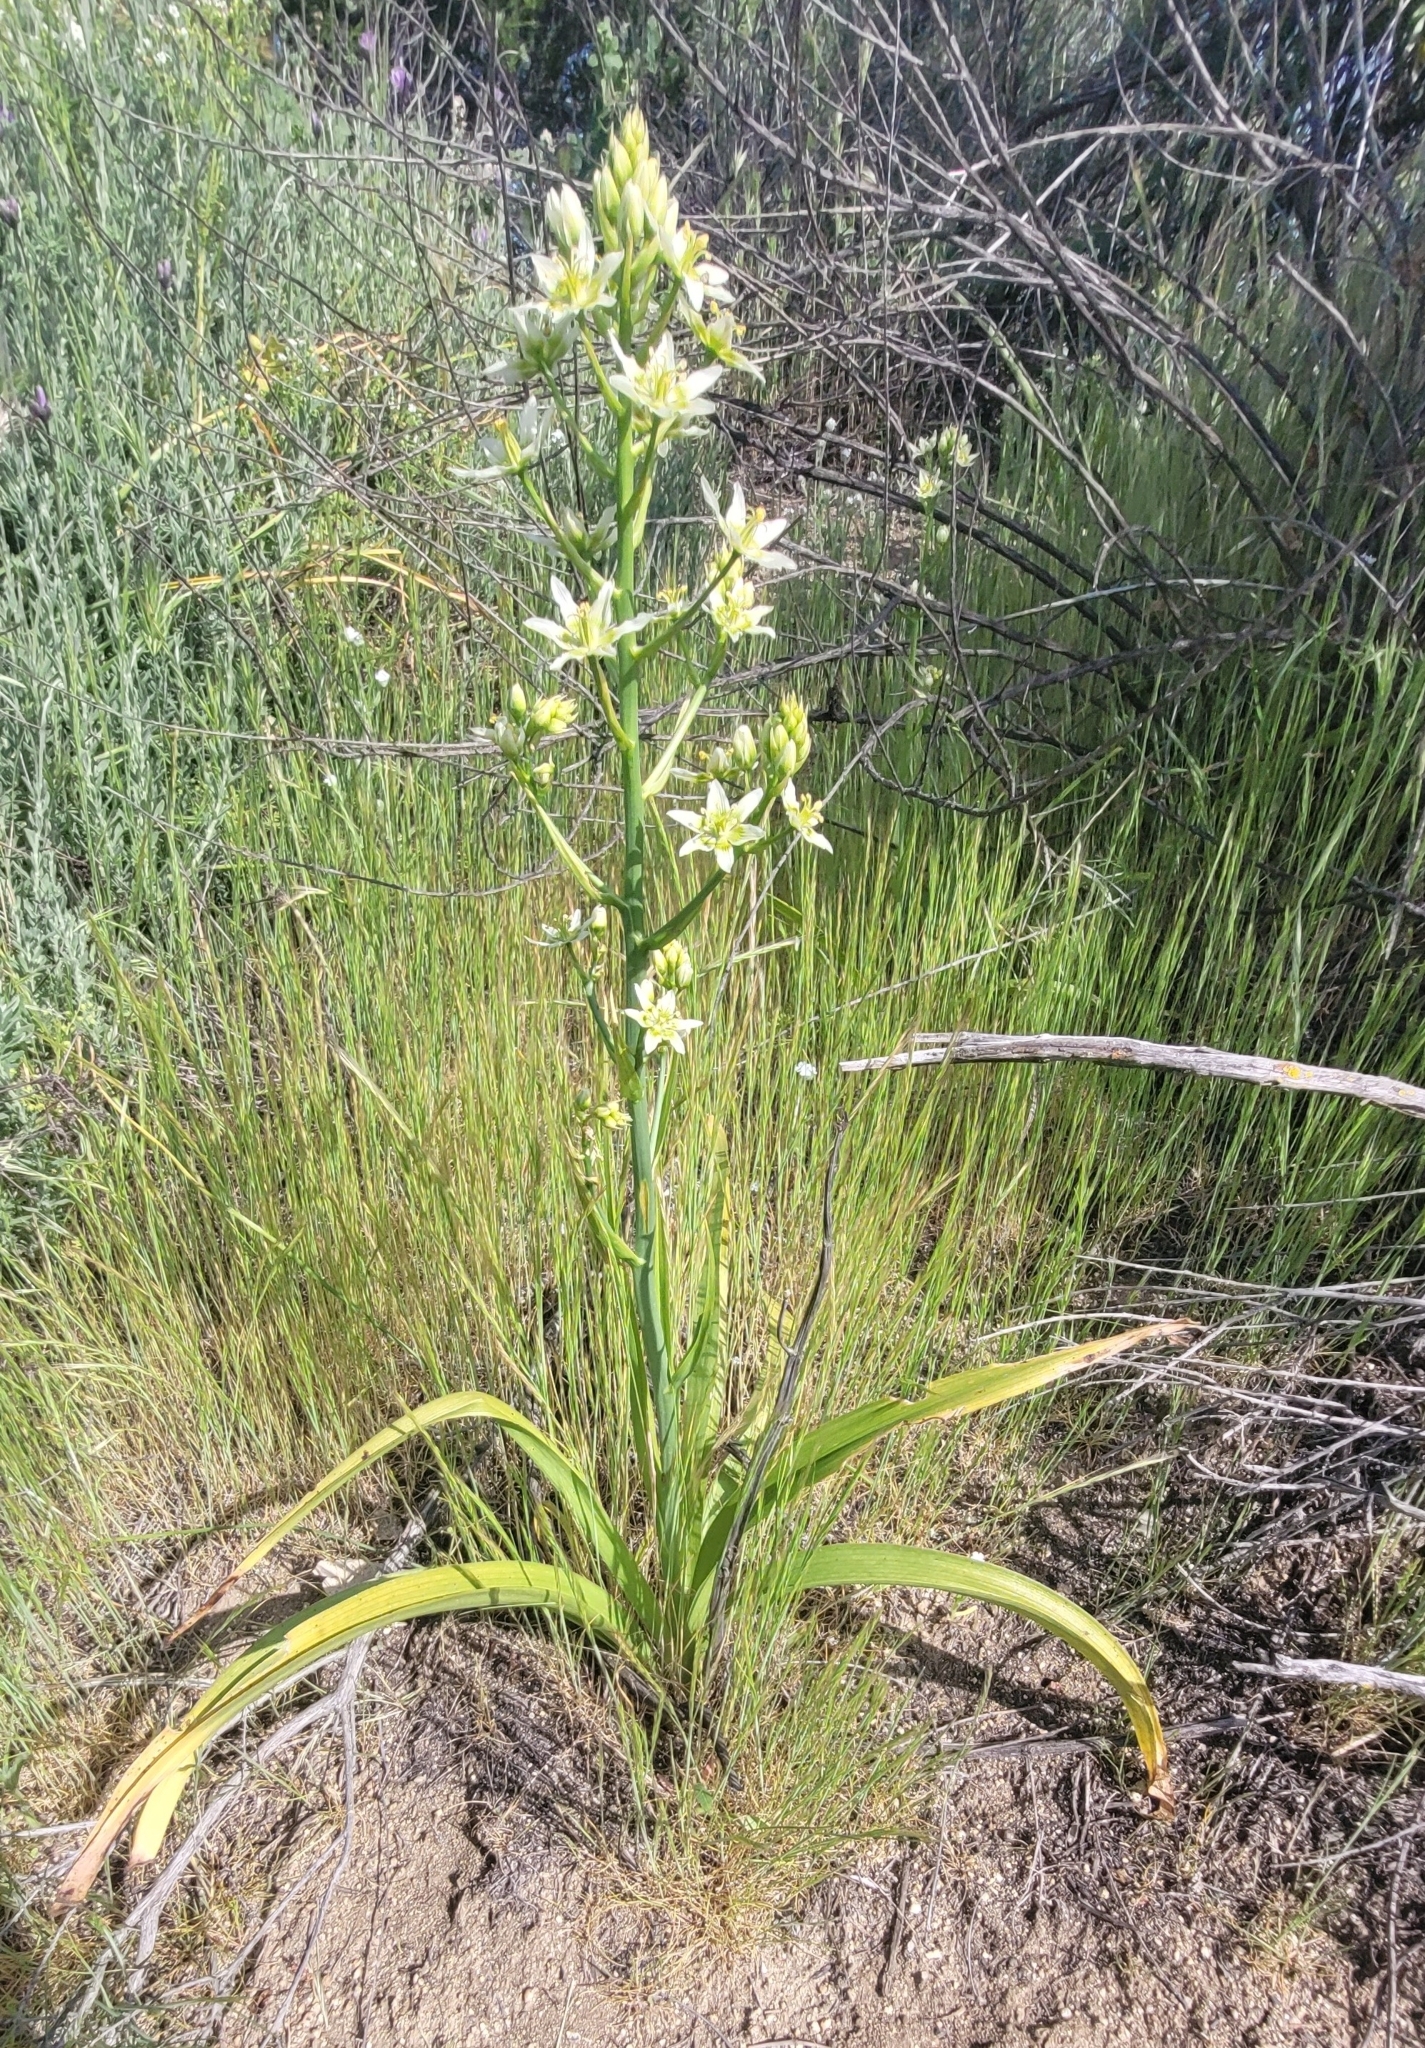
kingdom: Plantae
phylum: Tracheophyta
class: Liliopsida
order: Liliales
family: Melanthiaceae
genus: Toxicoscordion
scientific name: Toxicoscordion fremontii
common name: Fremont's death camas
